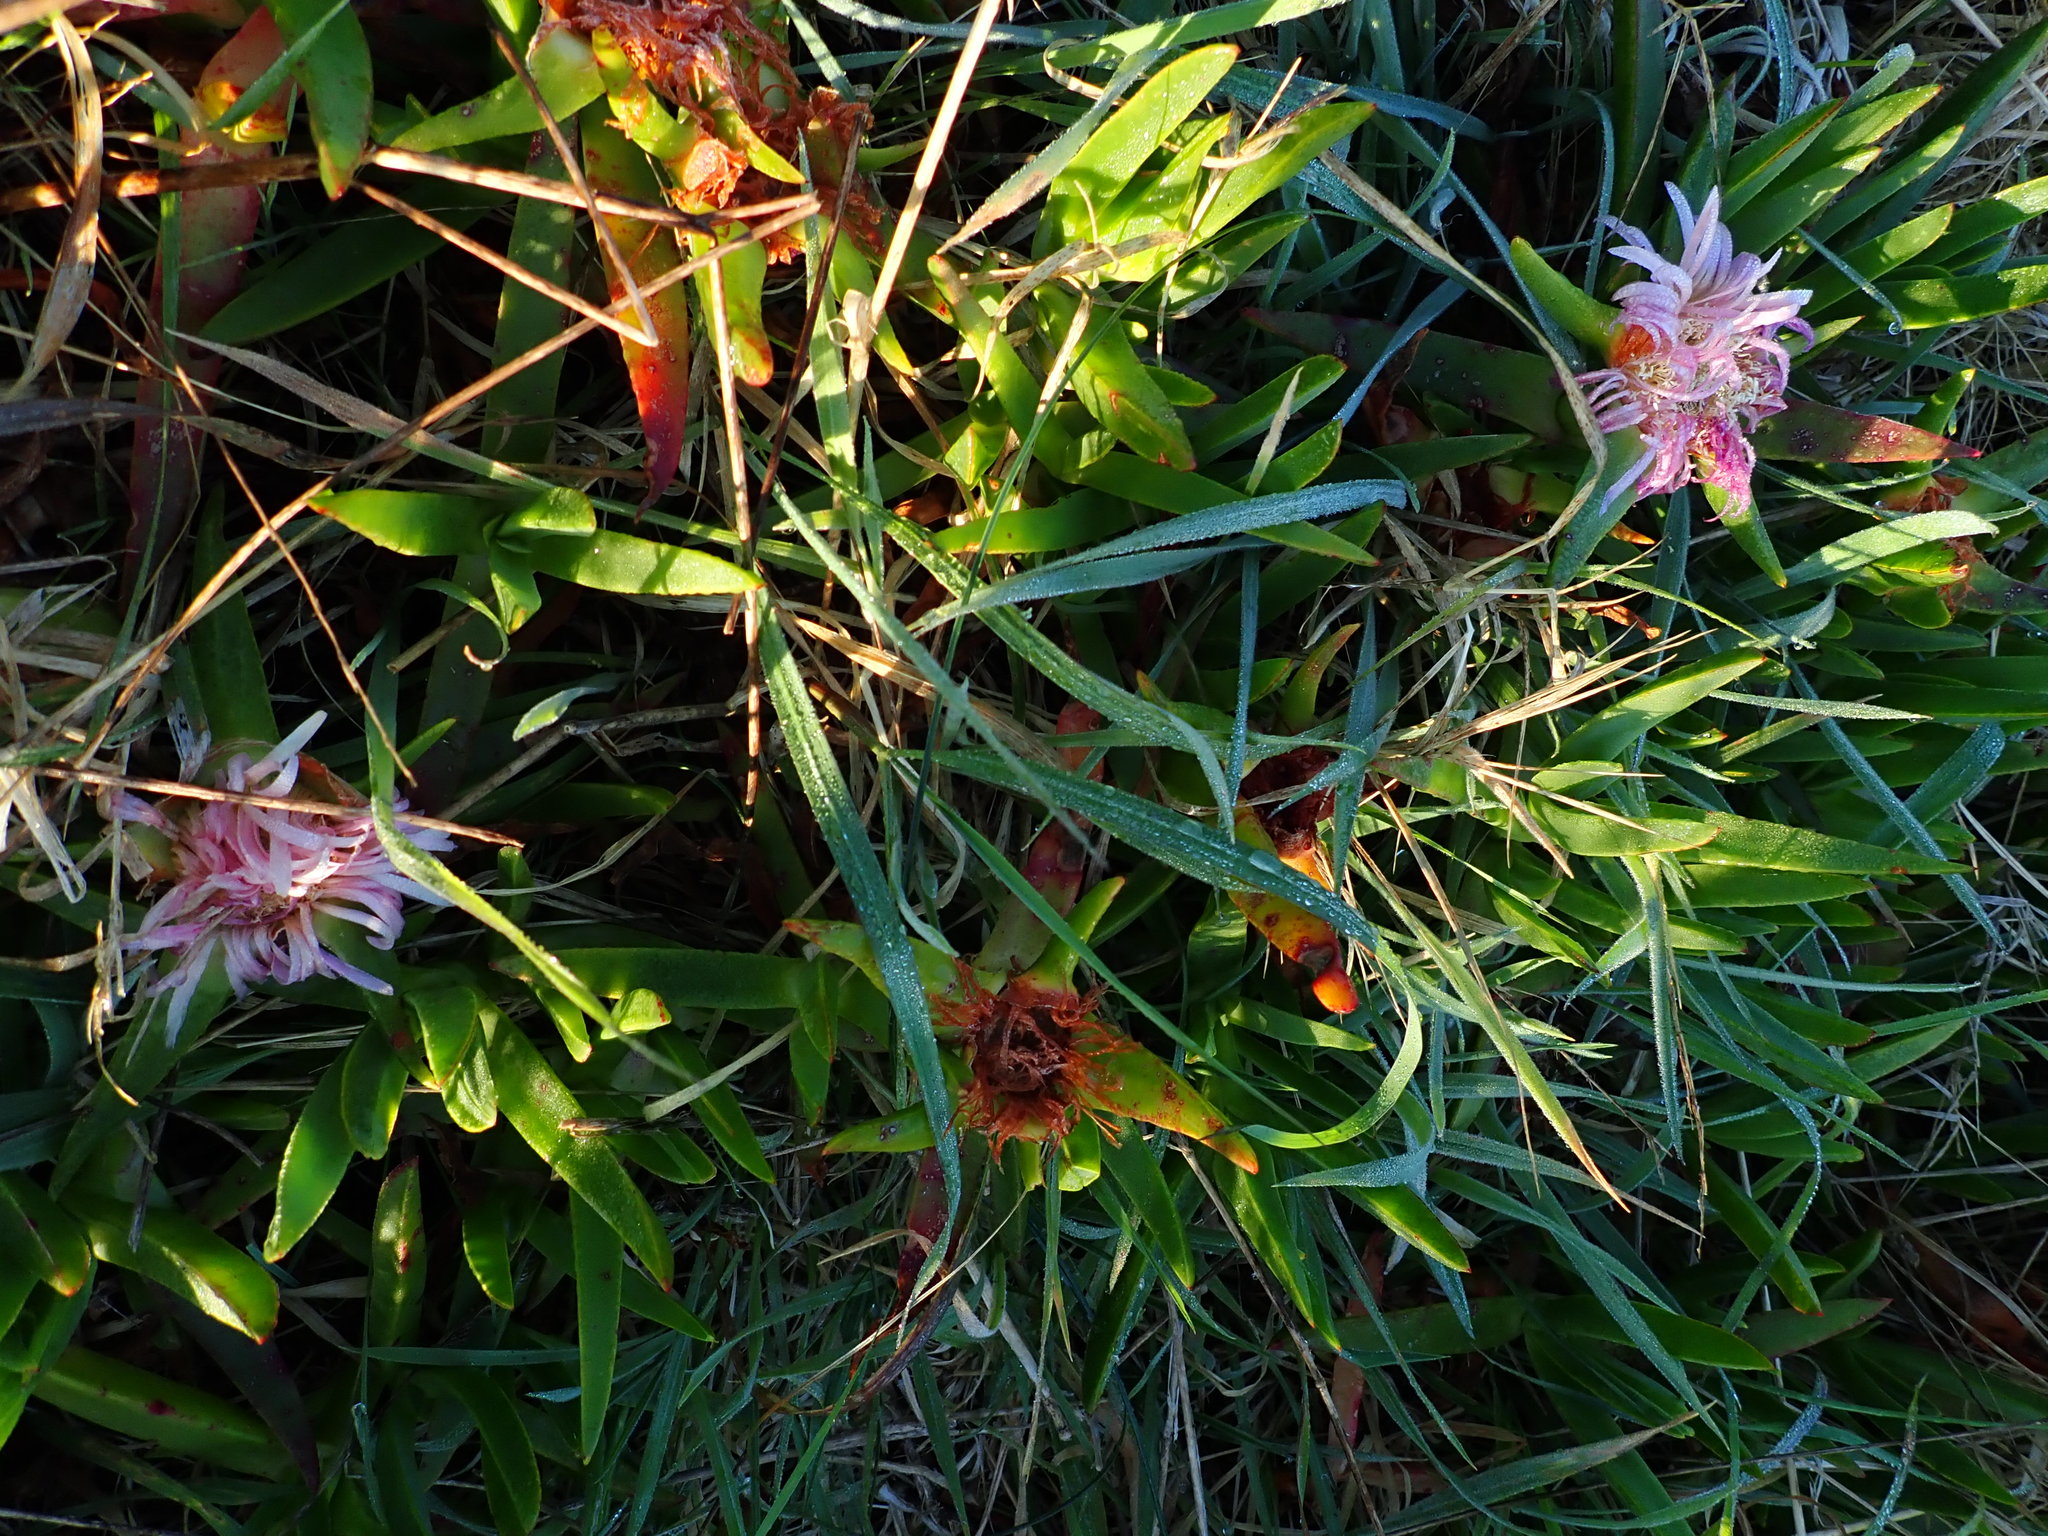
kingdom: Plantae
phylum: Tracheophyta
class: Magnoliopsida
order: Caryophyllales
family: Aizoaceae
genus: Carpobrotus
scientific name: Carpobrotus edulis
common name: Hottentot-fig
